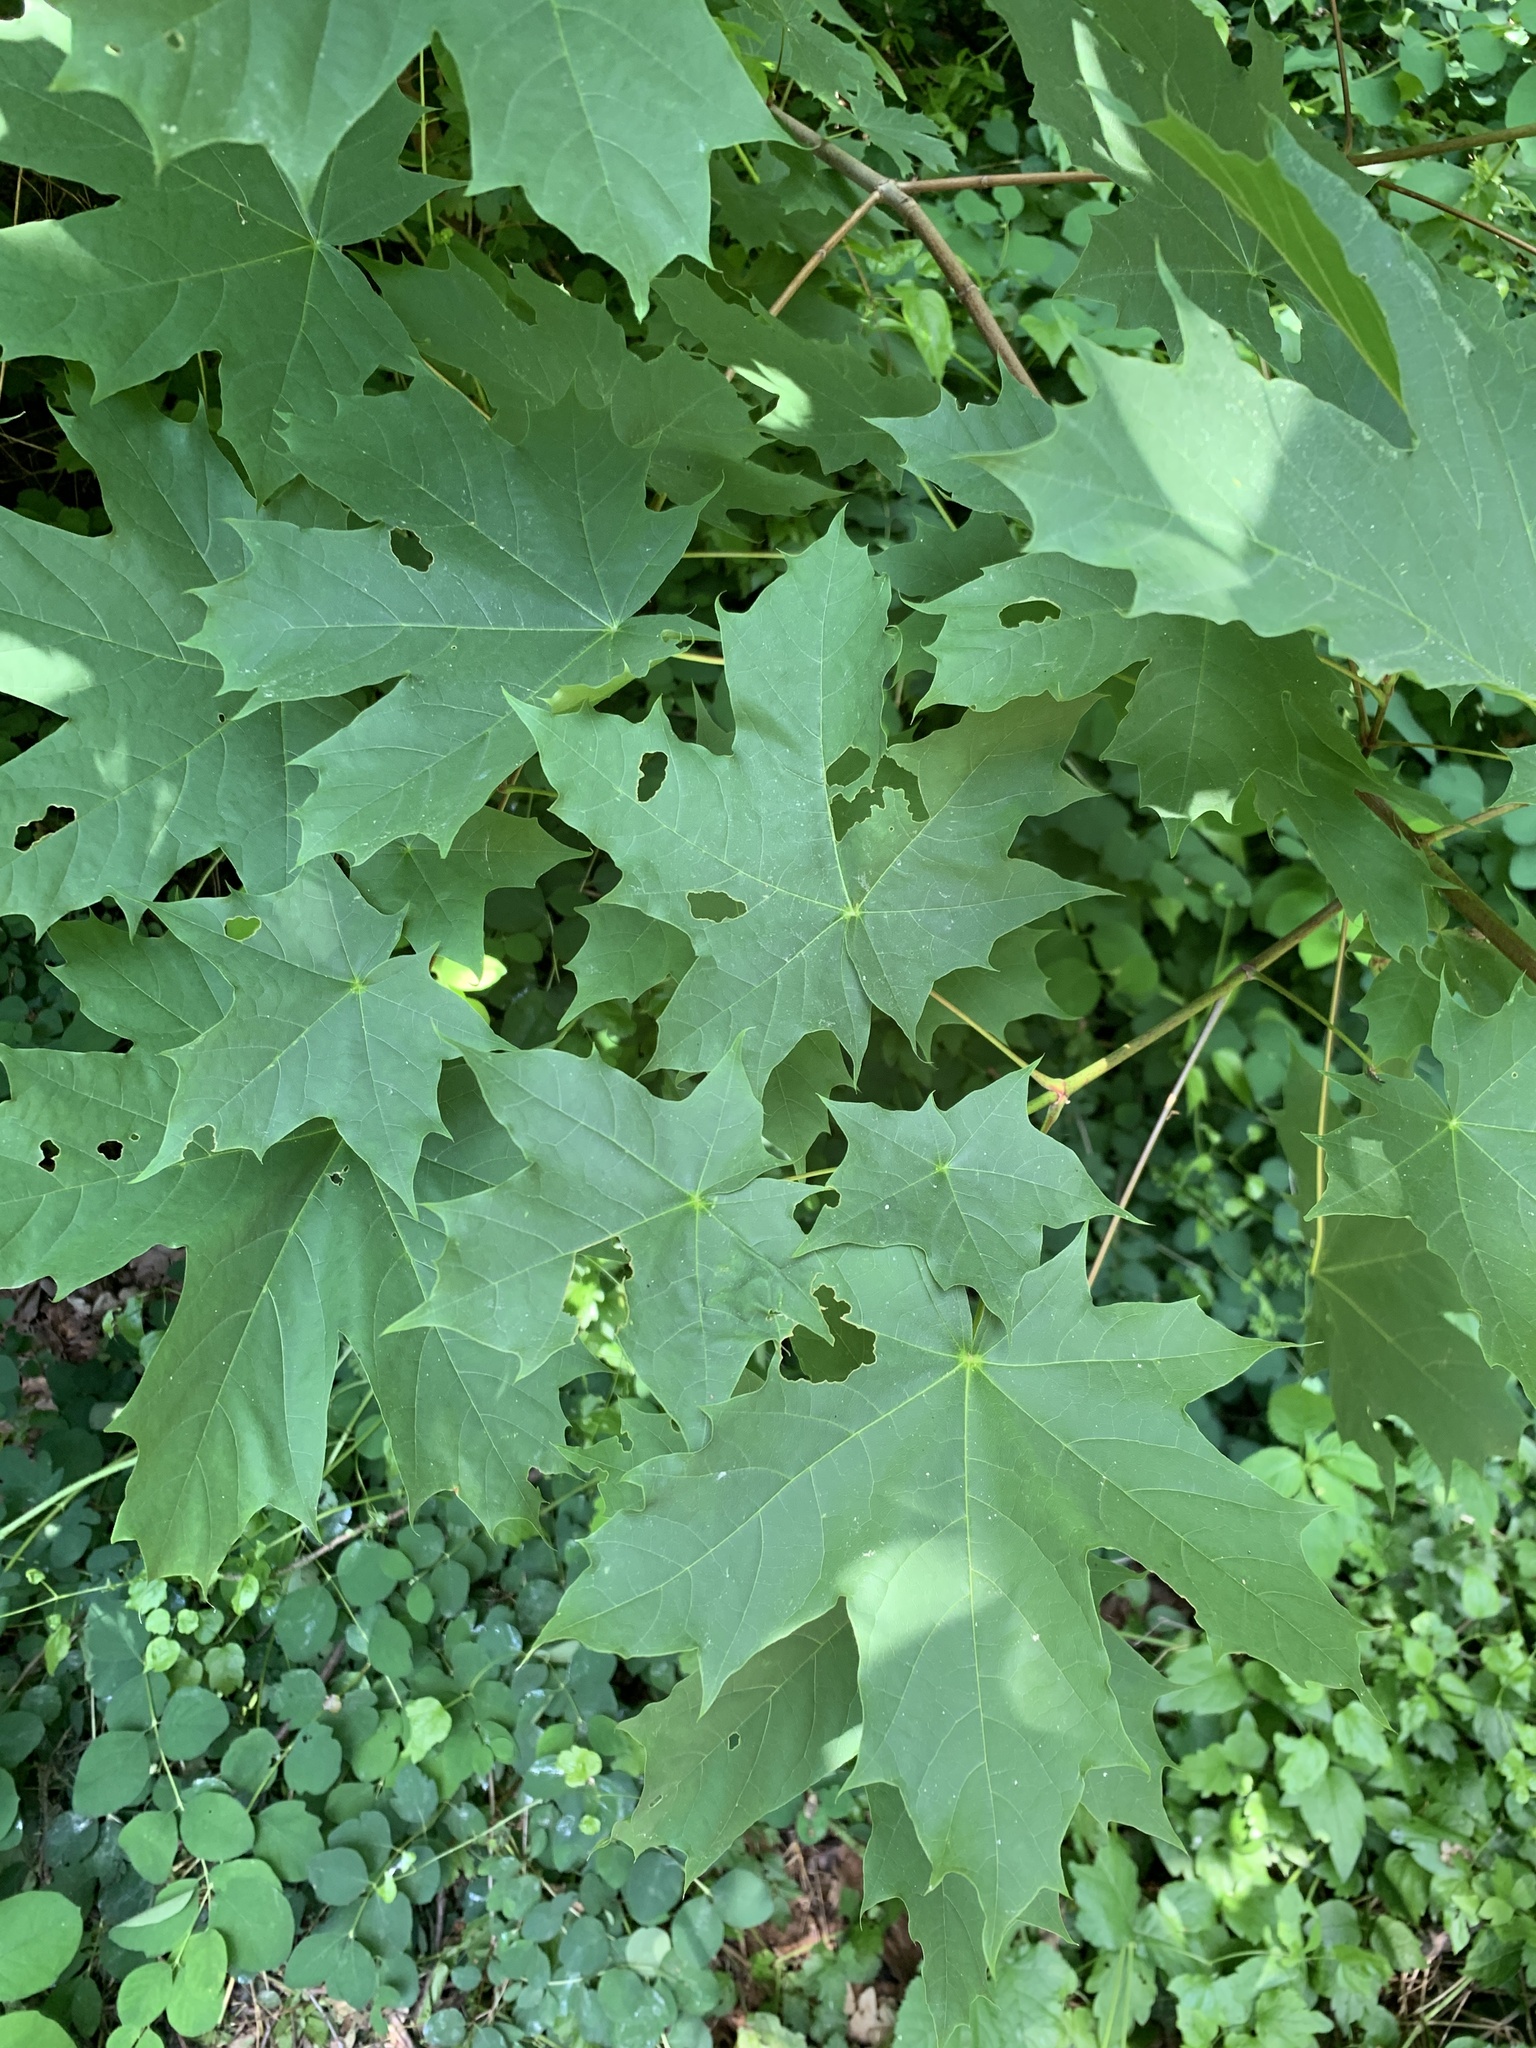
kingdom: Plantae
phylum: Tracheophyta
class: Magnoliopsida
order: Sapindales
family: Sapindaceae
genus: Acer
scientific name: Acer platanoides
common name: Norway maple
